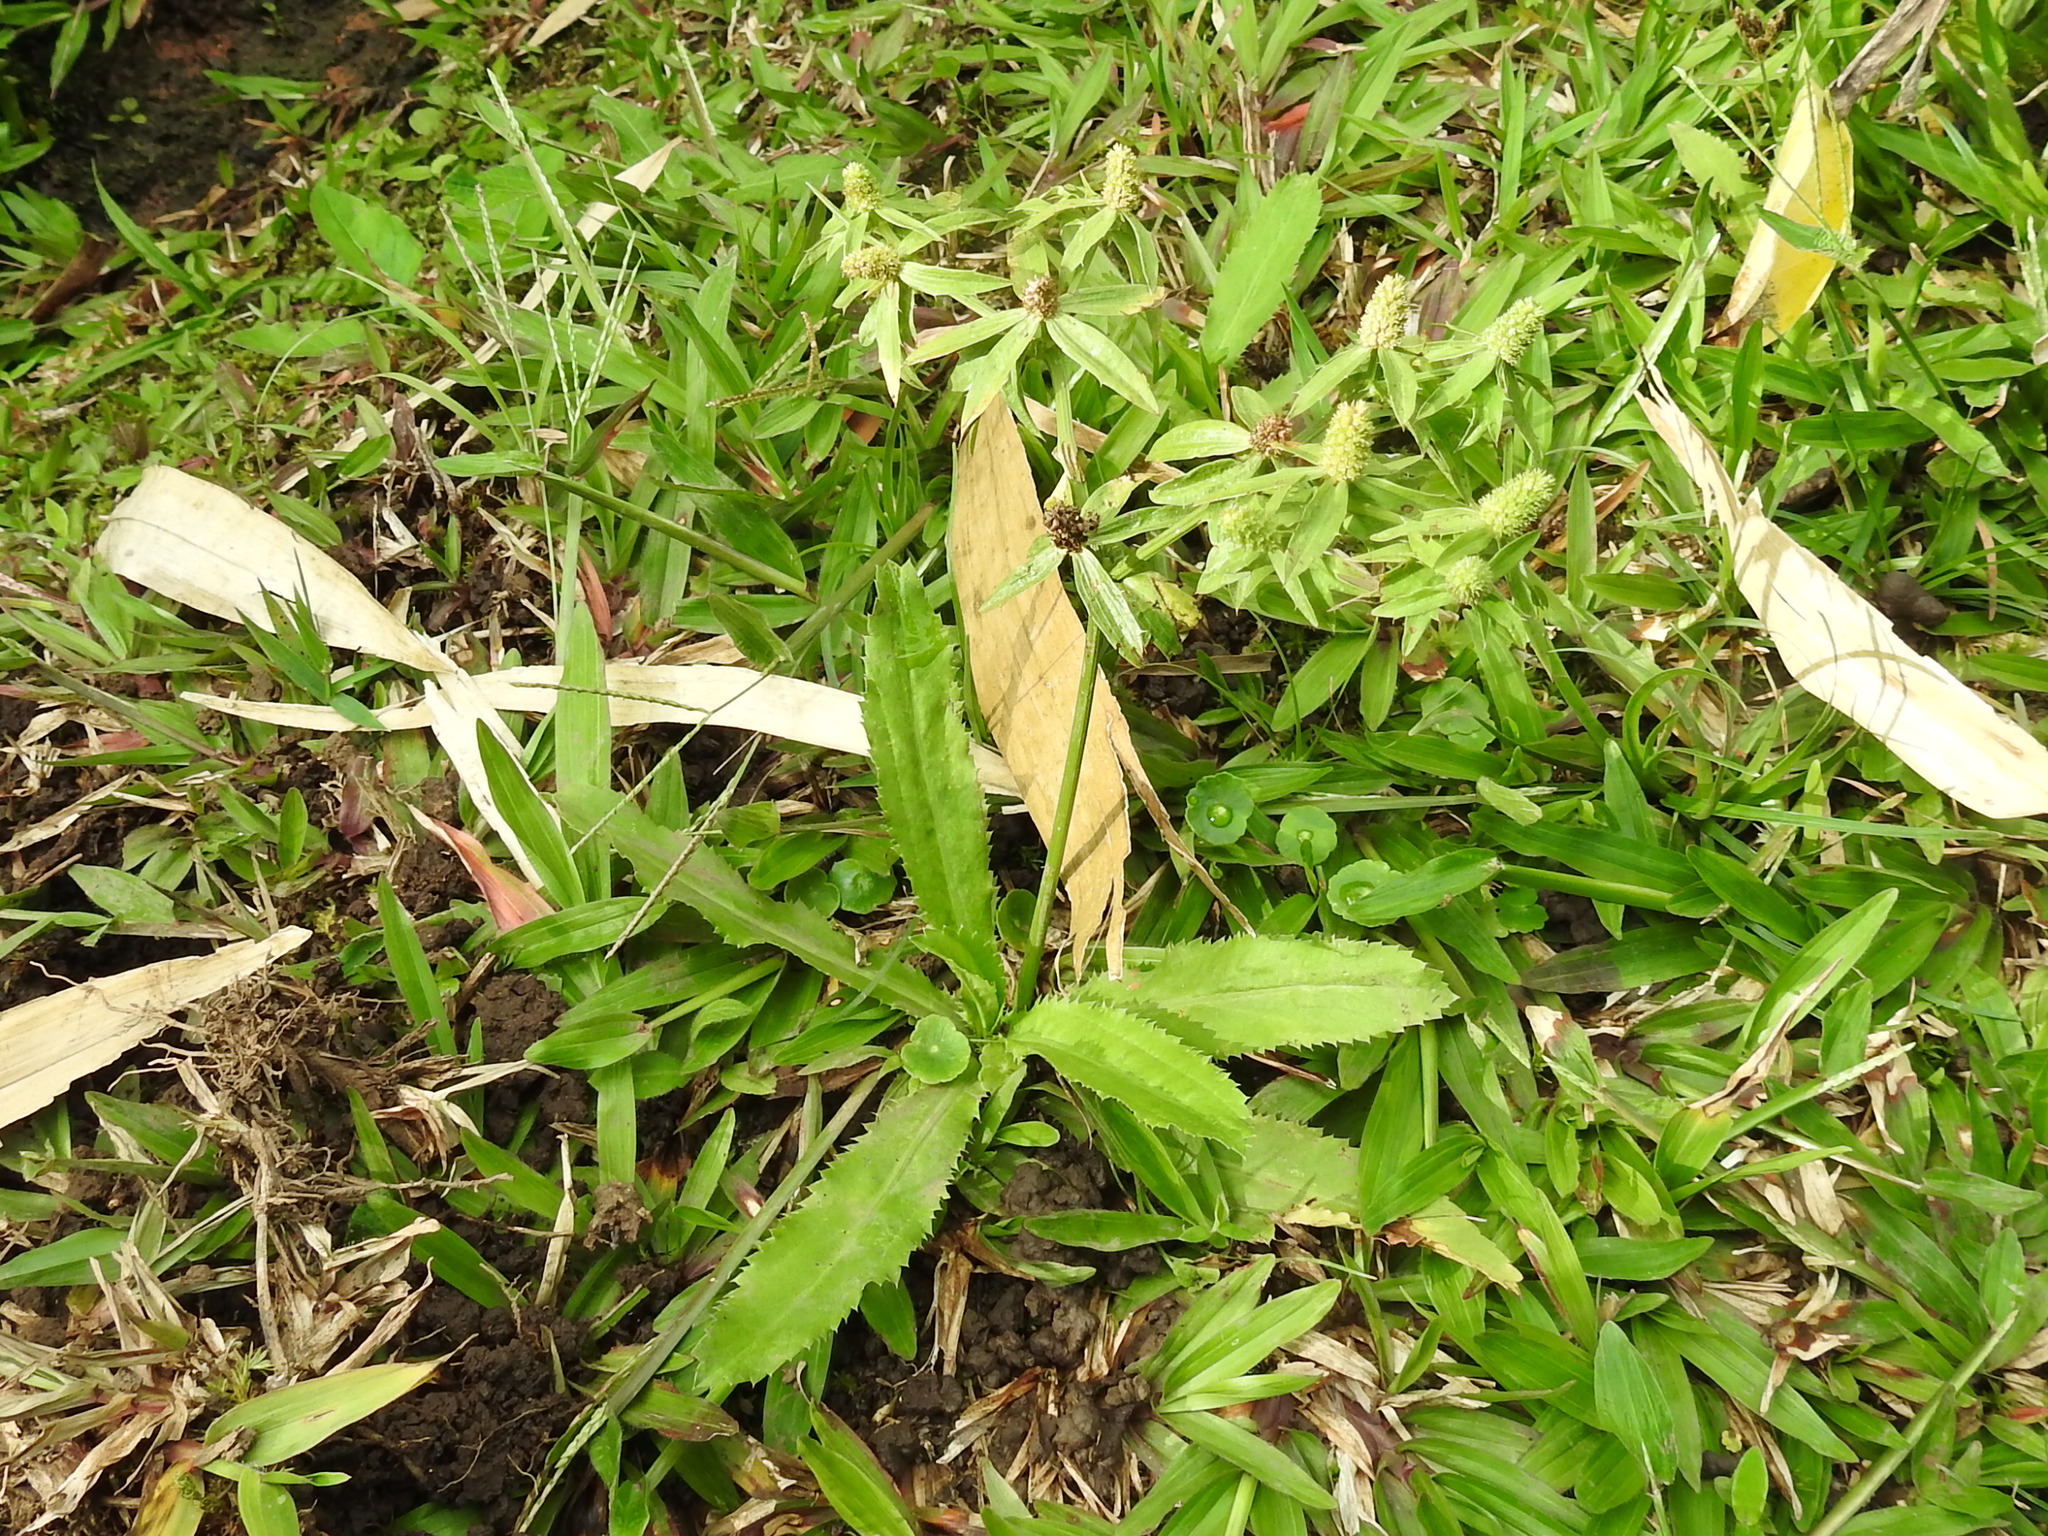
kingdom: Plantae
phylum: Tracheophyta
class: Magnoliopsida
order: Apiales
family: Apiaceae
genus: Eryngium
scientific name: Eryngium foetidum
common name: Fitweed
